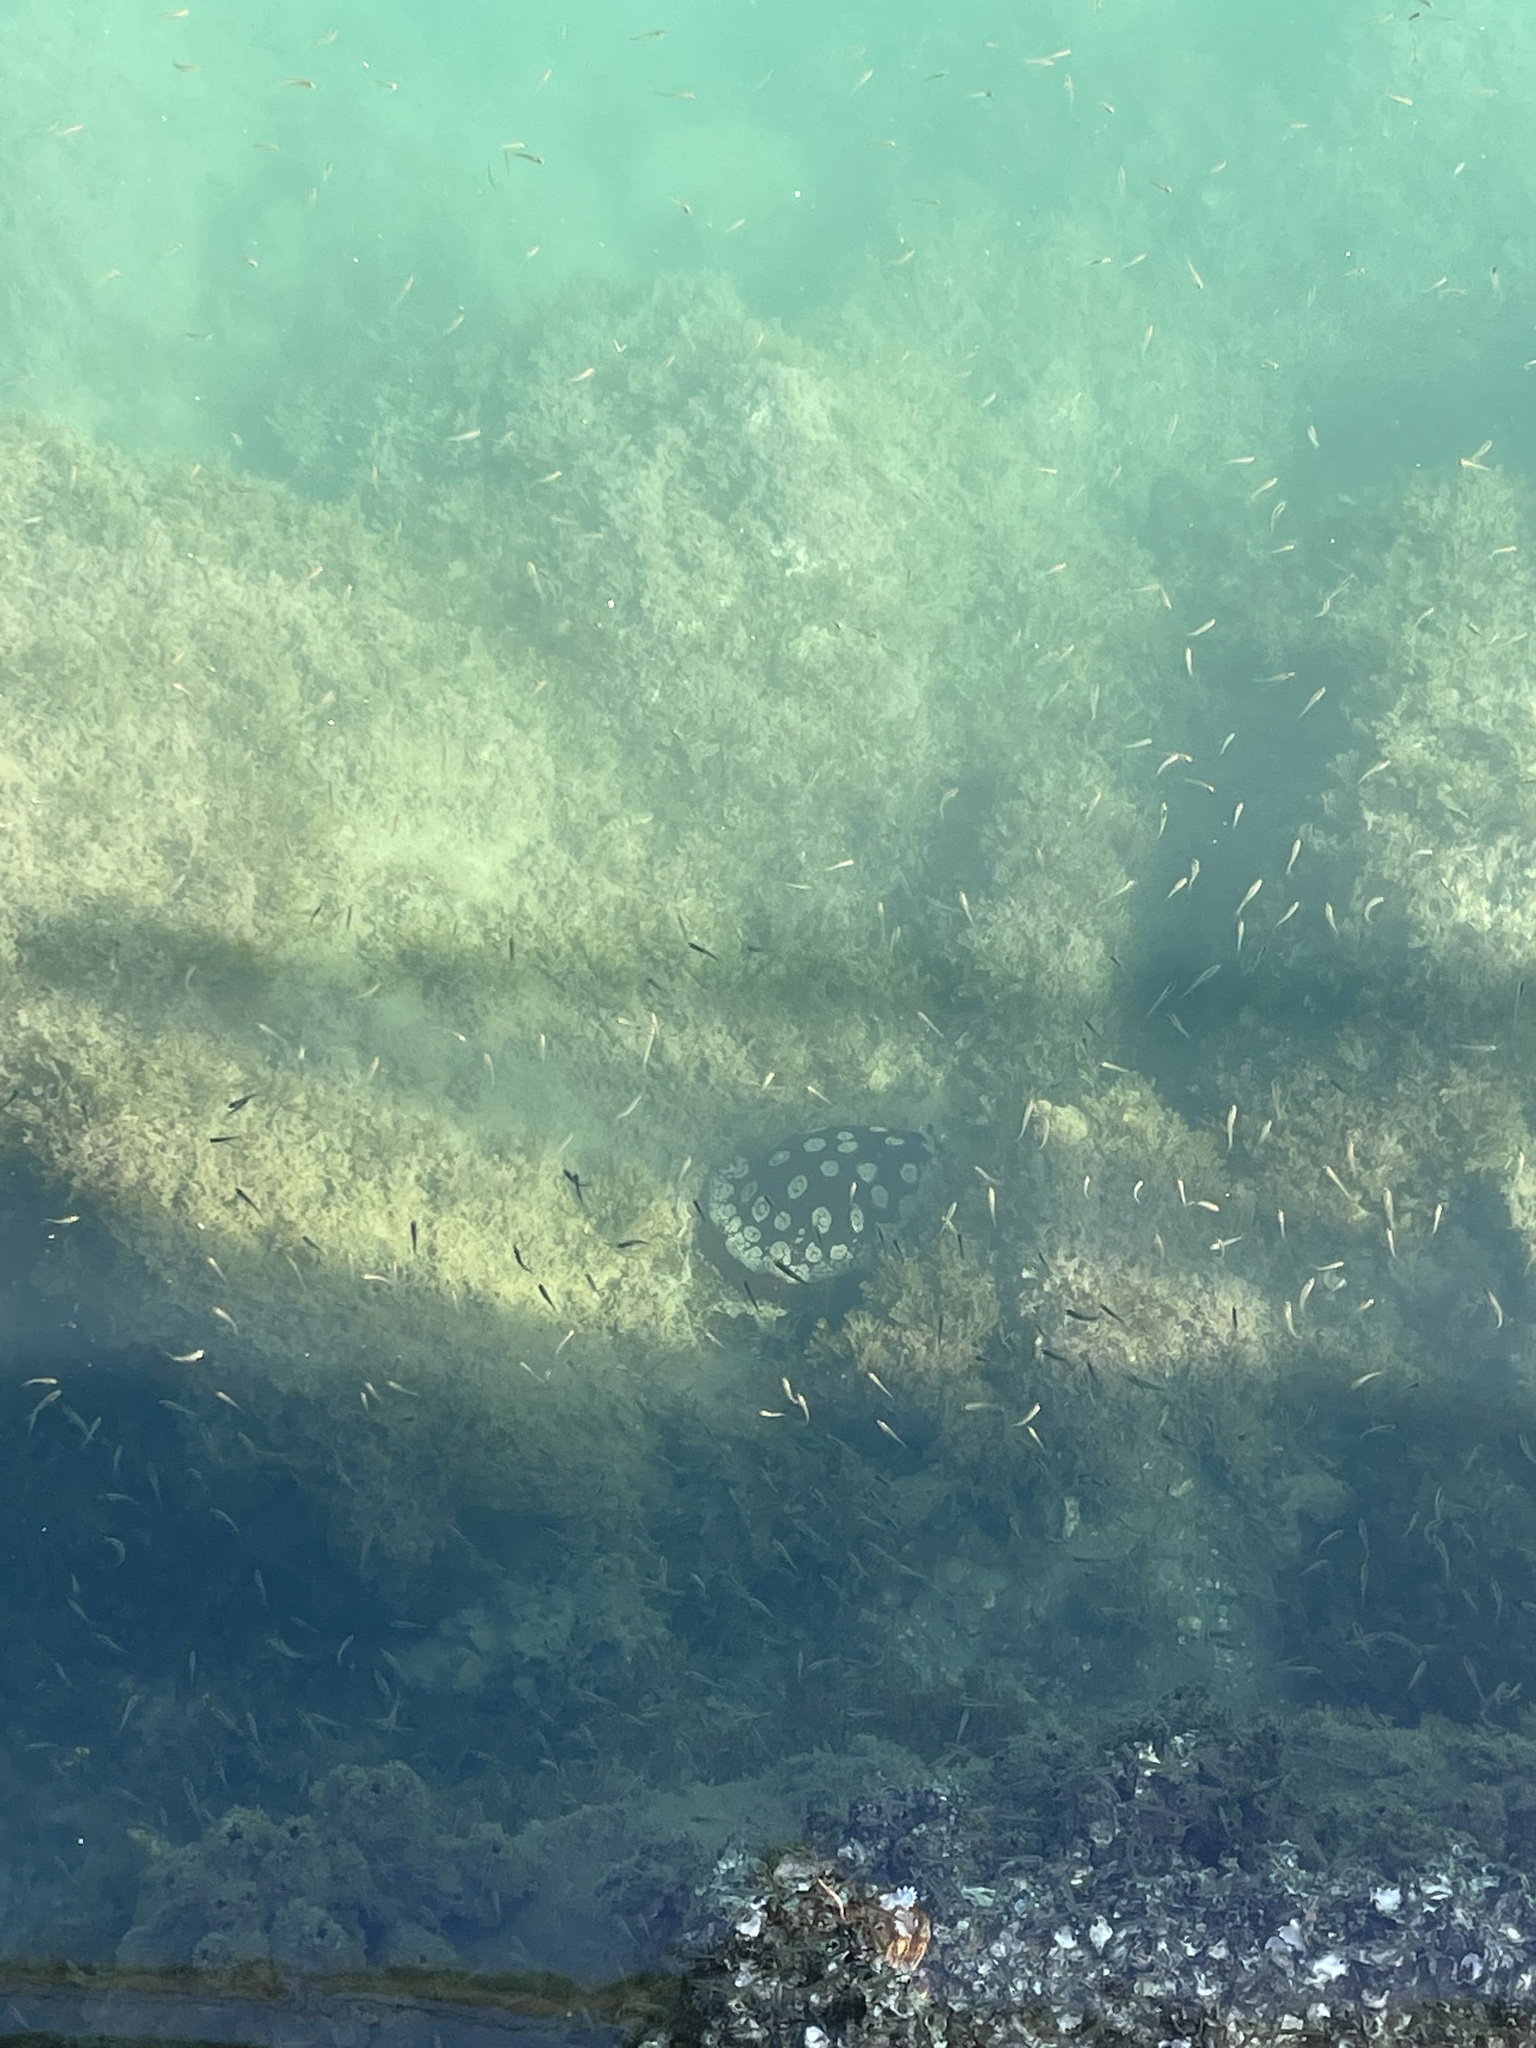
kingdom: Animalia
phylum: Mollusca
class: Gastropoda
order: Pleurobranchida
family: Pleurobranchidae
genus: Pleurobranchus
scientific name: Pleurobranchus weberi
